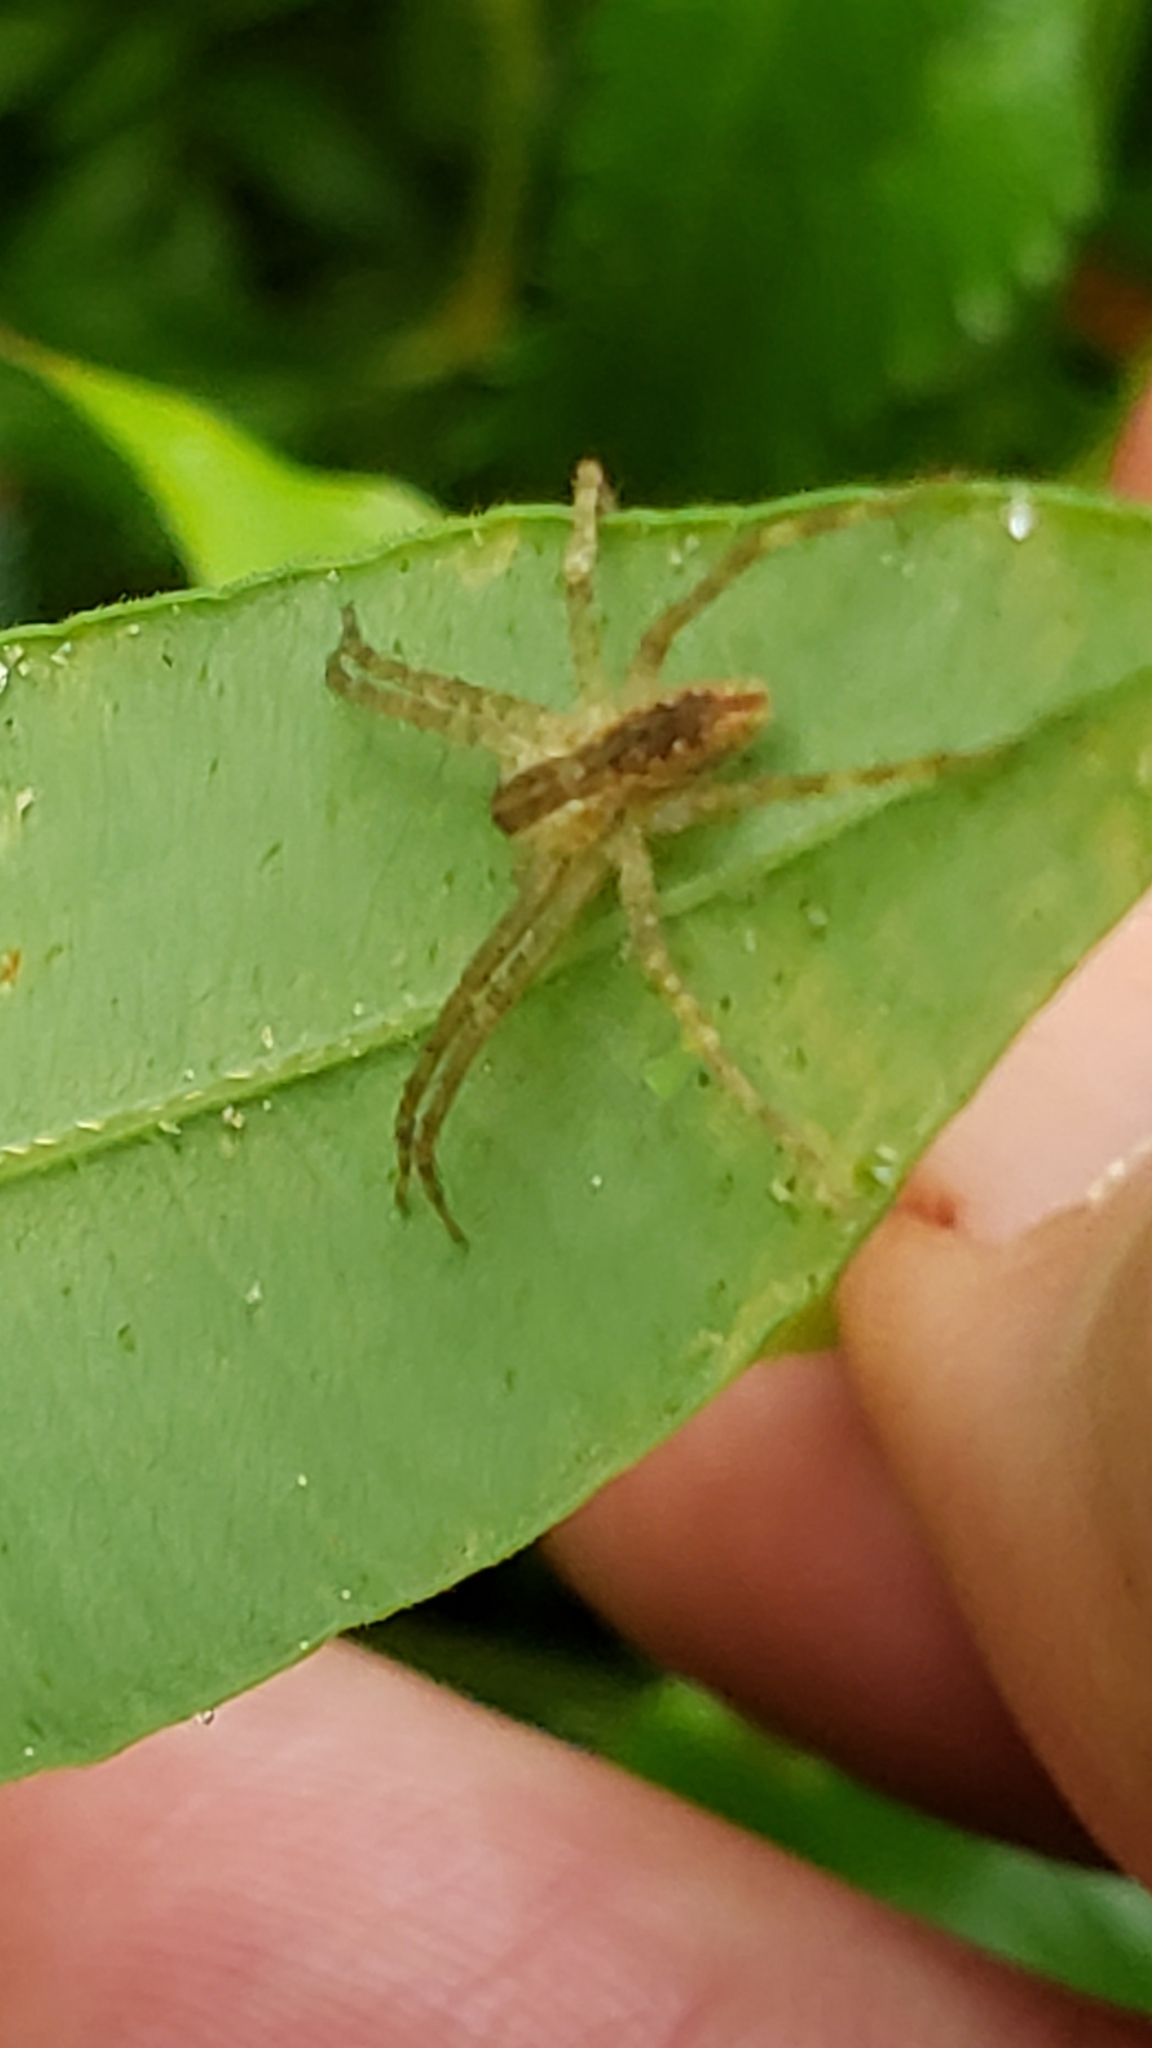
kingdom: Animalia
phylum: Arthropoda
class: Arachnida
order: Araneae
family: Pisauridae
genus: Pisaurina
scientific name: Pisaurina mira
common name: American nursery web spider
